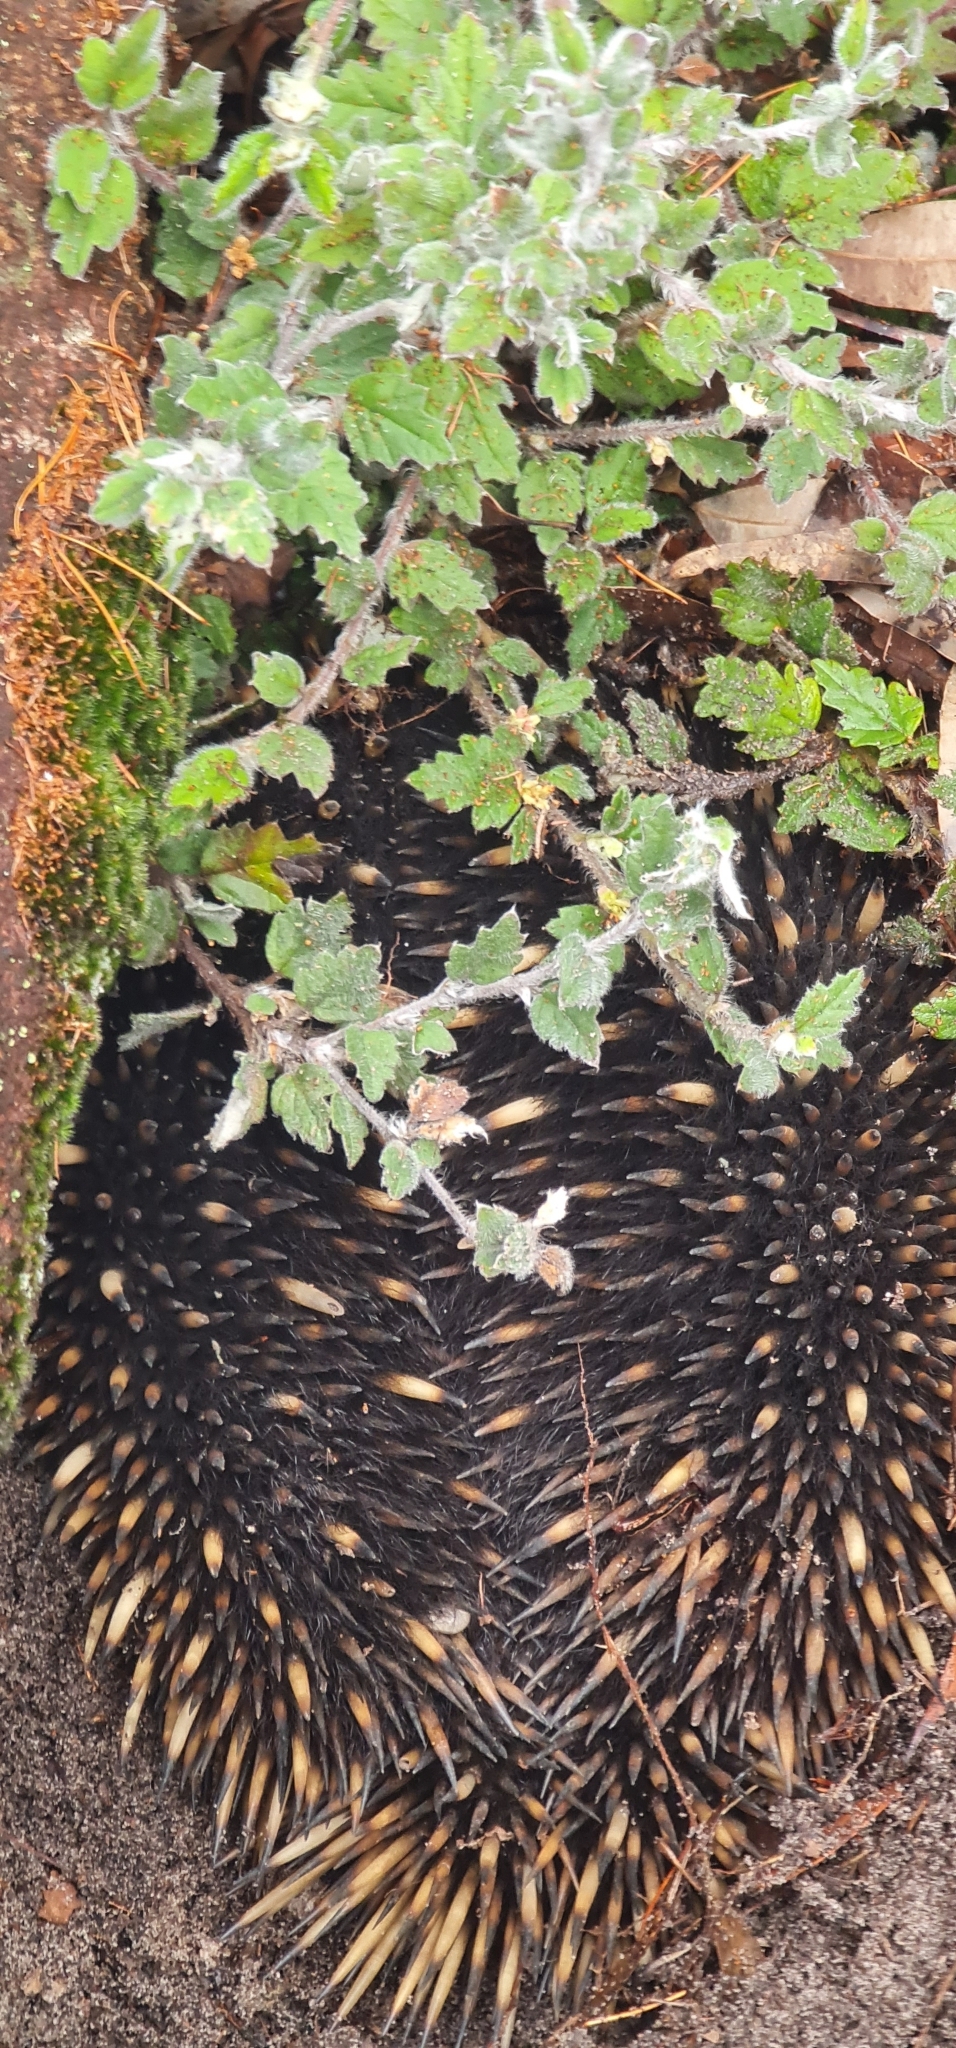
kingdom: Animalia
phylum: Chordata
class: Mammalia
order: Monotremata
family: Tachyglossidae
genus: Tachyglossus
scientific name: Tachyglossus aculeatus
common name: Short-beaked echidna
